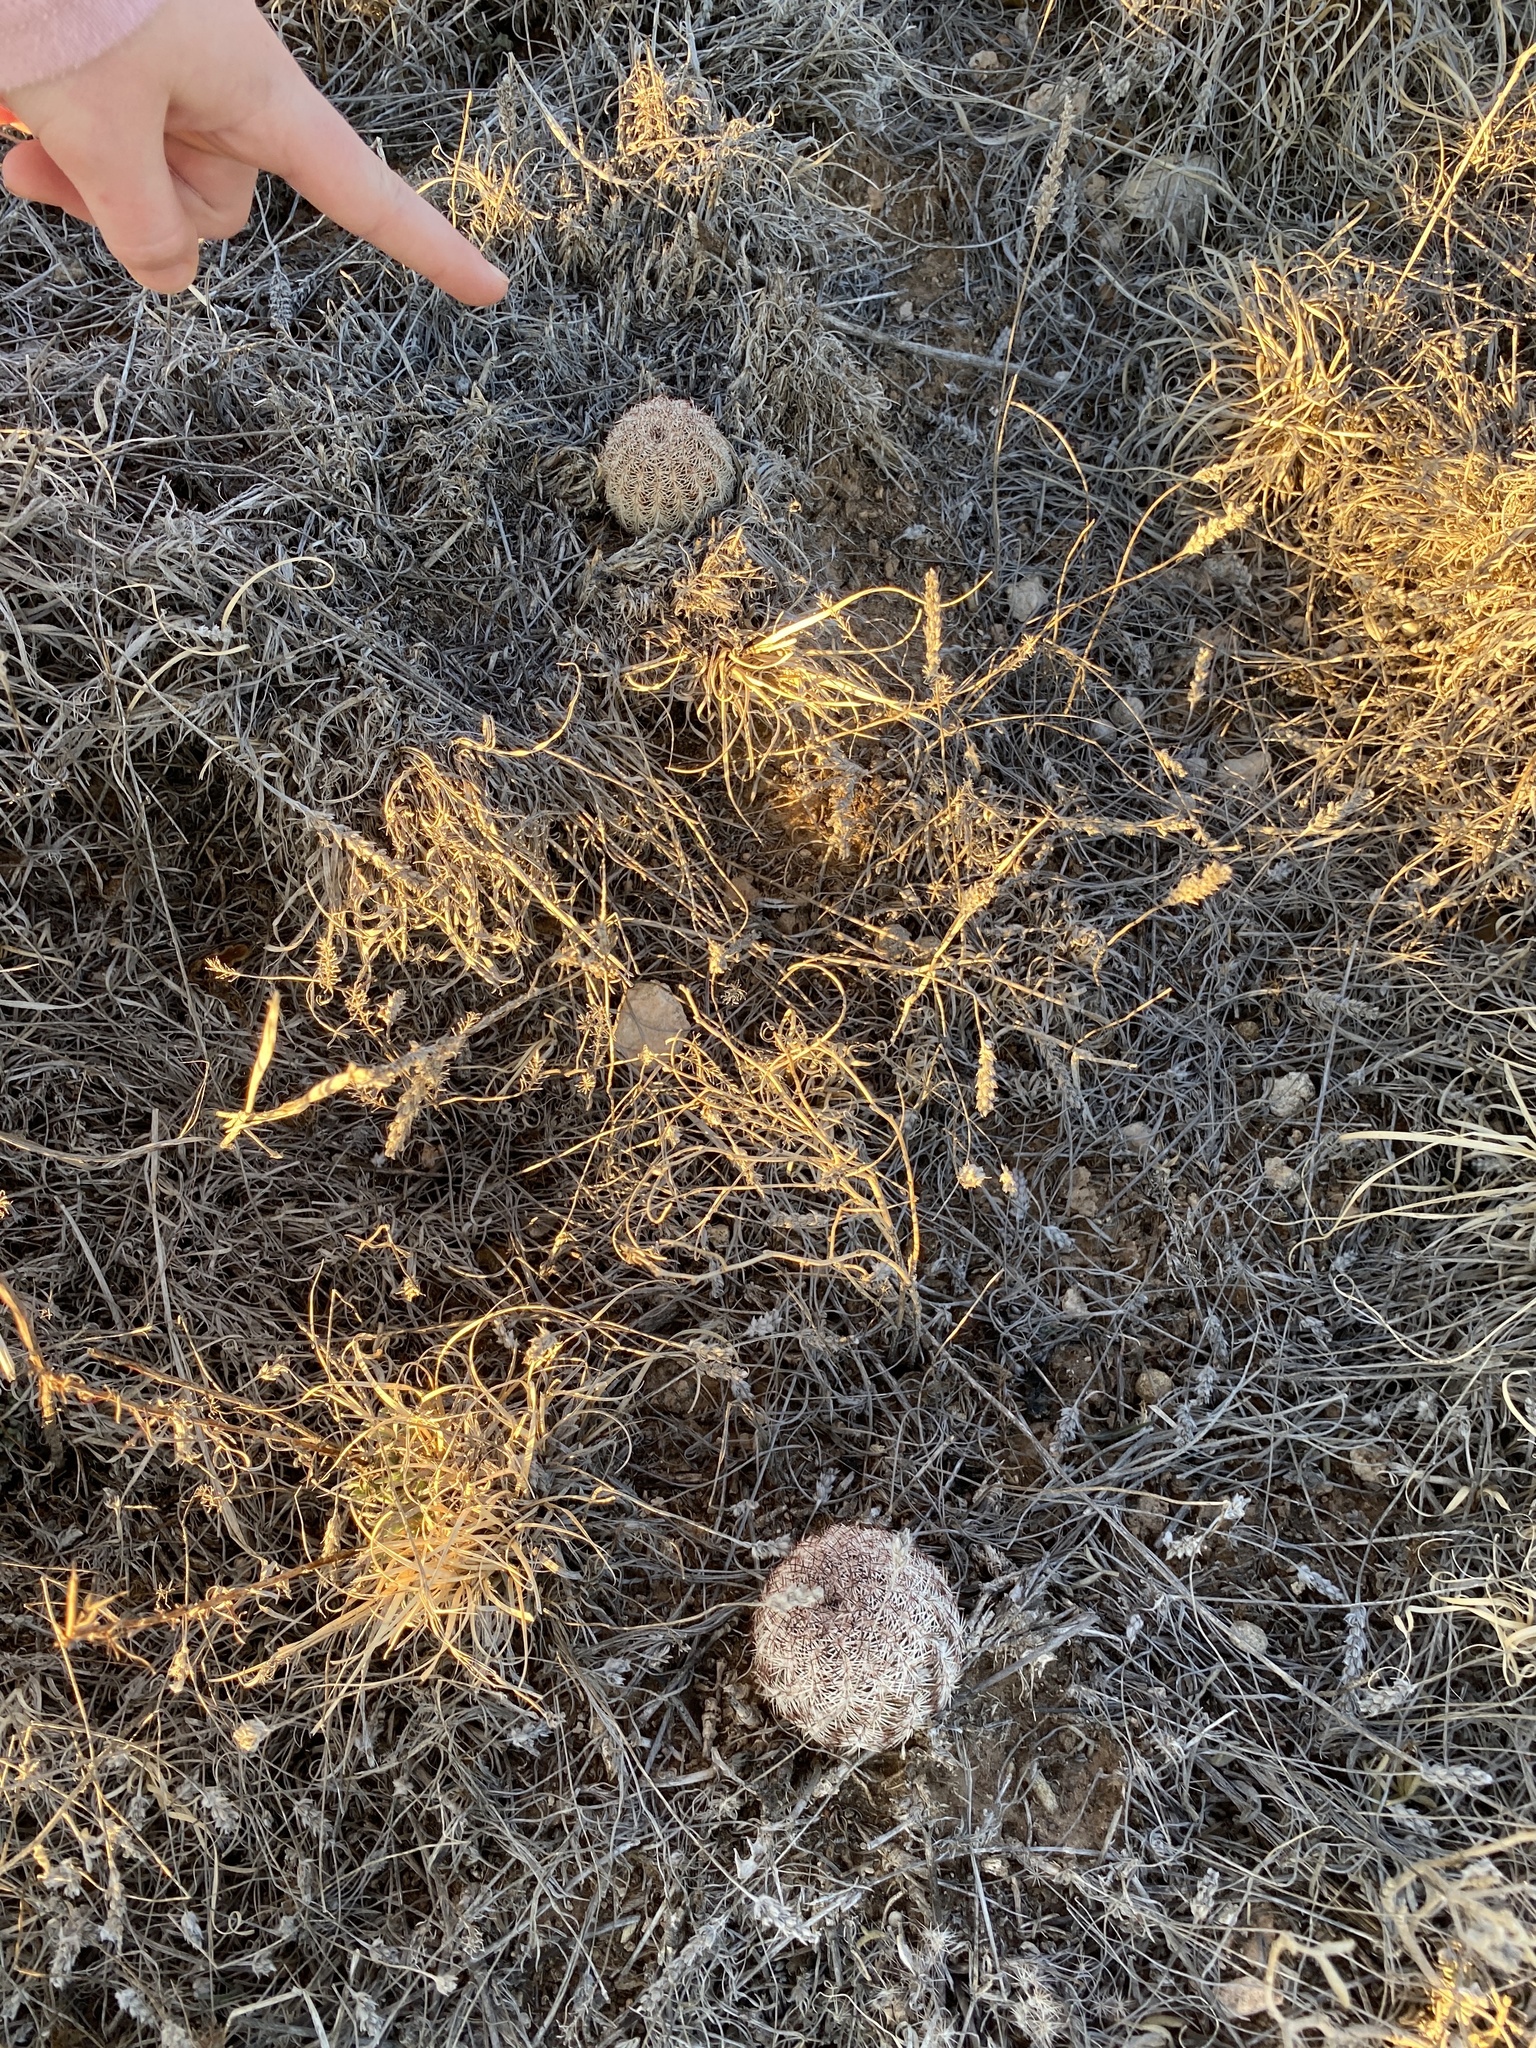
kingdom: Plantae
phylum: Tracheophyta
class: Magnoliopsida
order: Caryophyllales
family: Cactaceae
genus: Echinocereus
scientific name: Echinocereus reichenbachii
